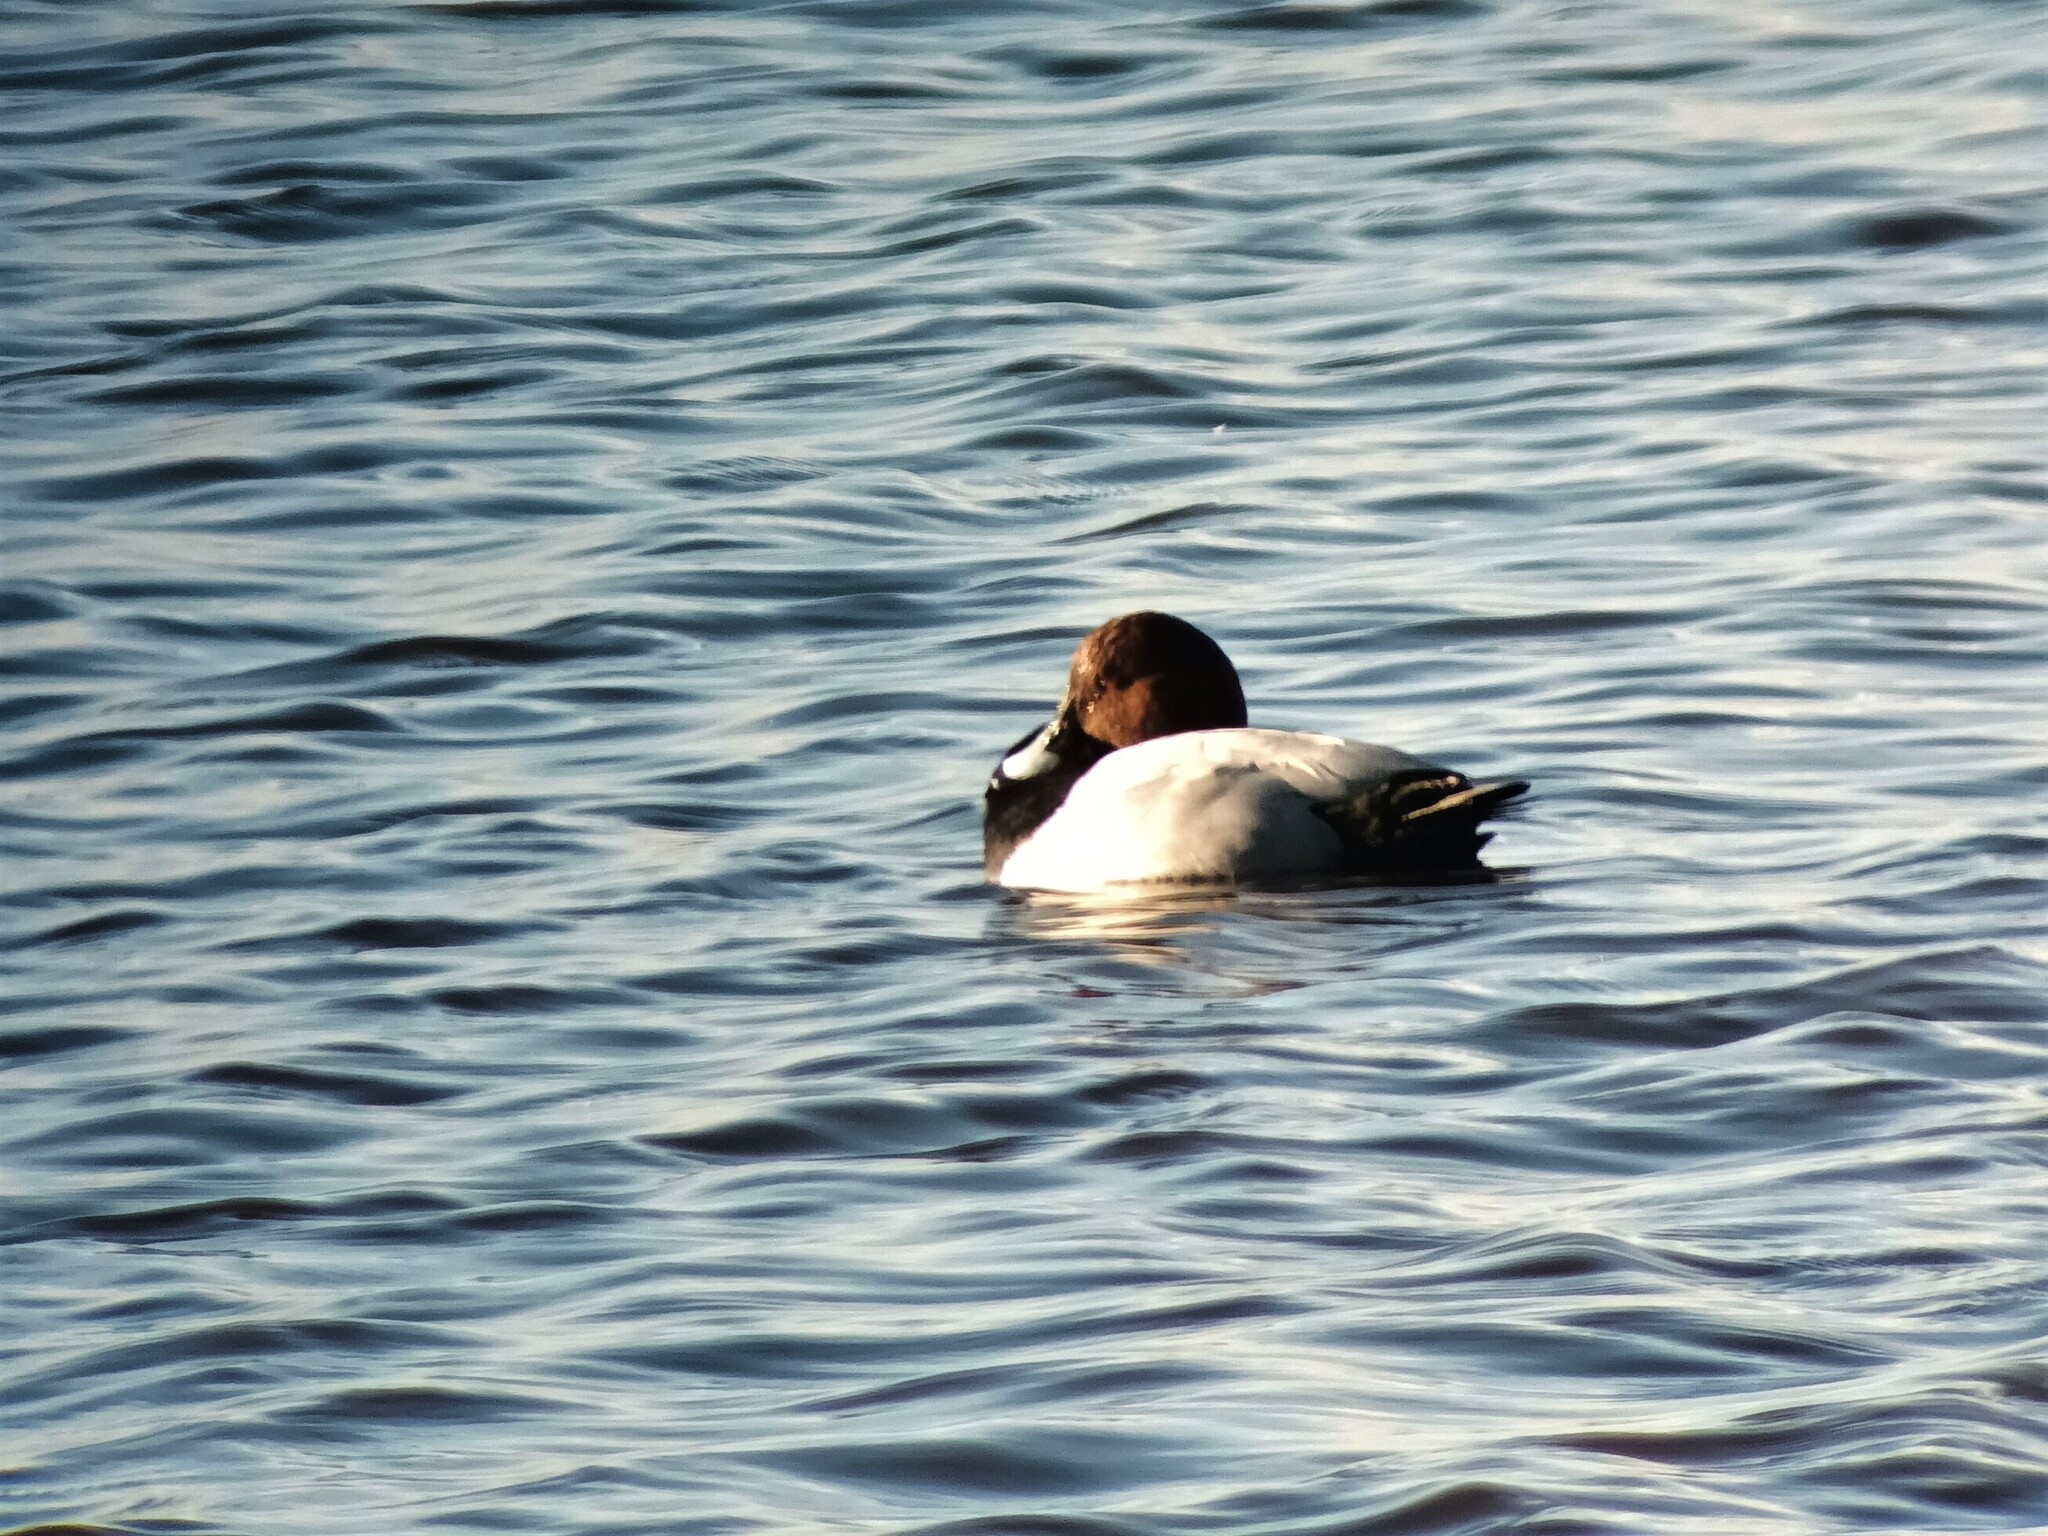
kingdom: Animalia
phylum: Chordata
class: Aves
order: Anseriformes
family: Anatidae
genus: Aythya
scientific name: Aythya ferina
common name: Common pochard
